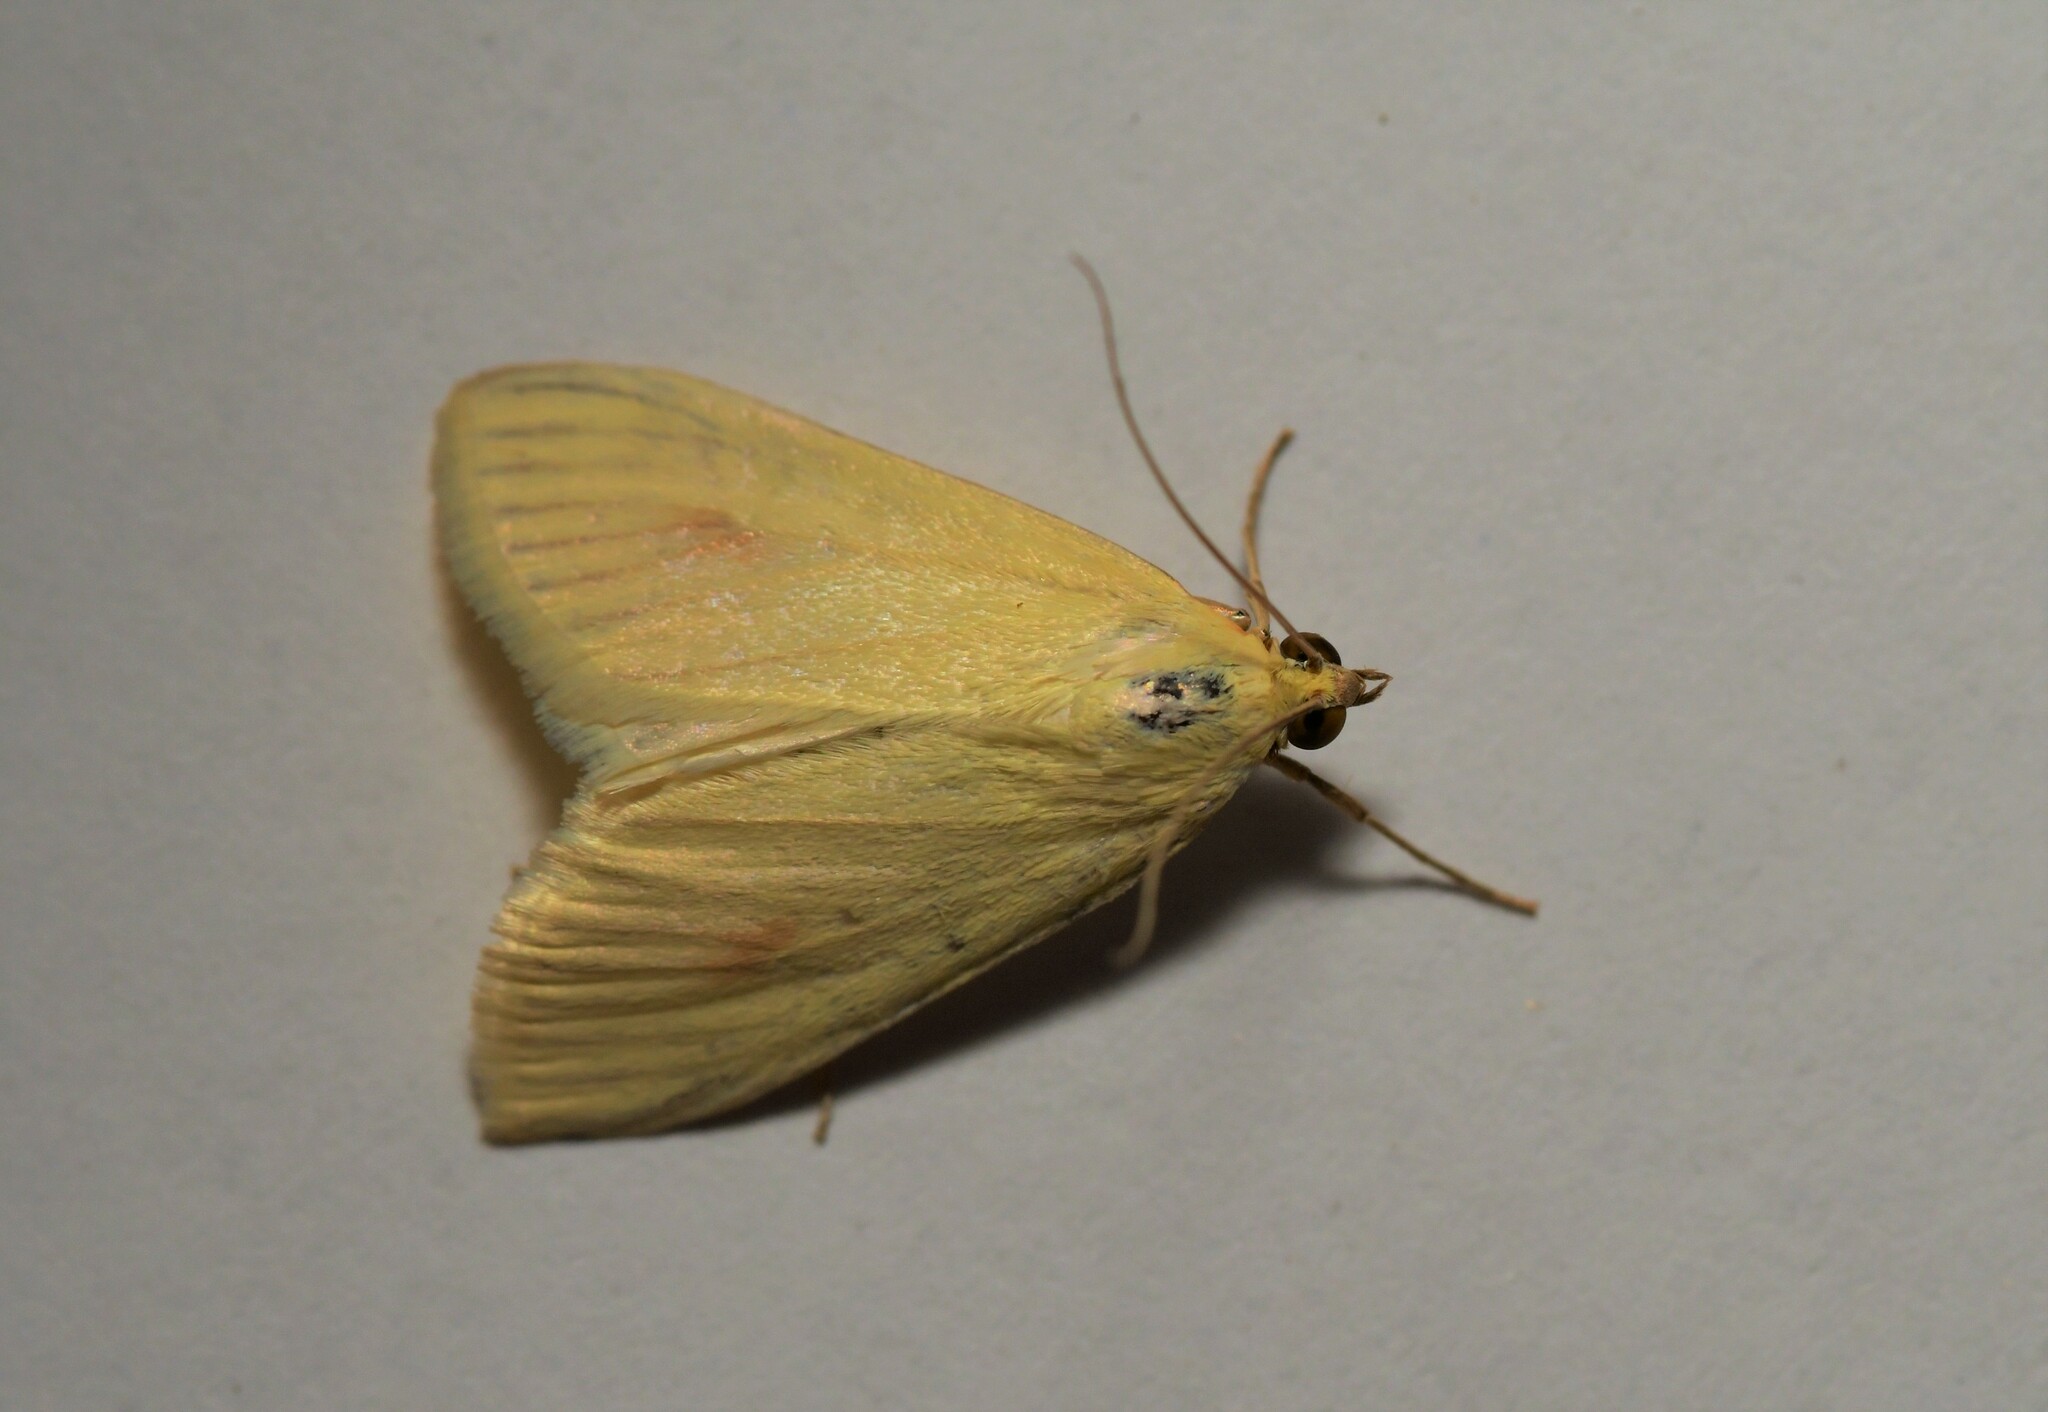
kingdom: Animalia
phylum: Arthropoda
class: Insecta
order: Lepidoptera
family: Crambidae
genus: Sitochroa
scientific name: Sitochroa palealis
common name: Greenish-yellow sitochroa moth
